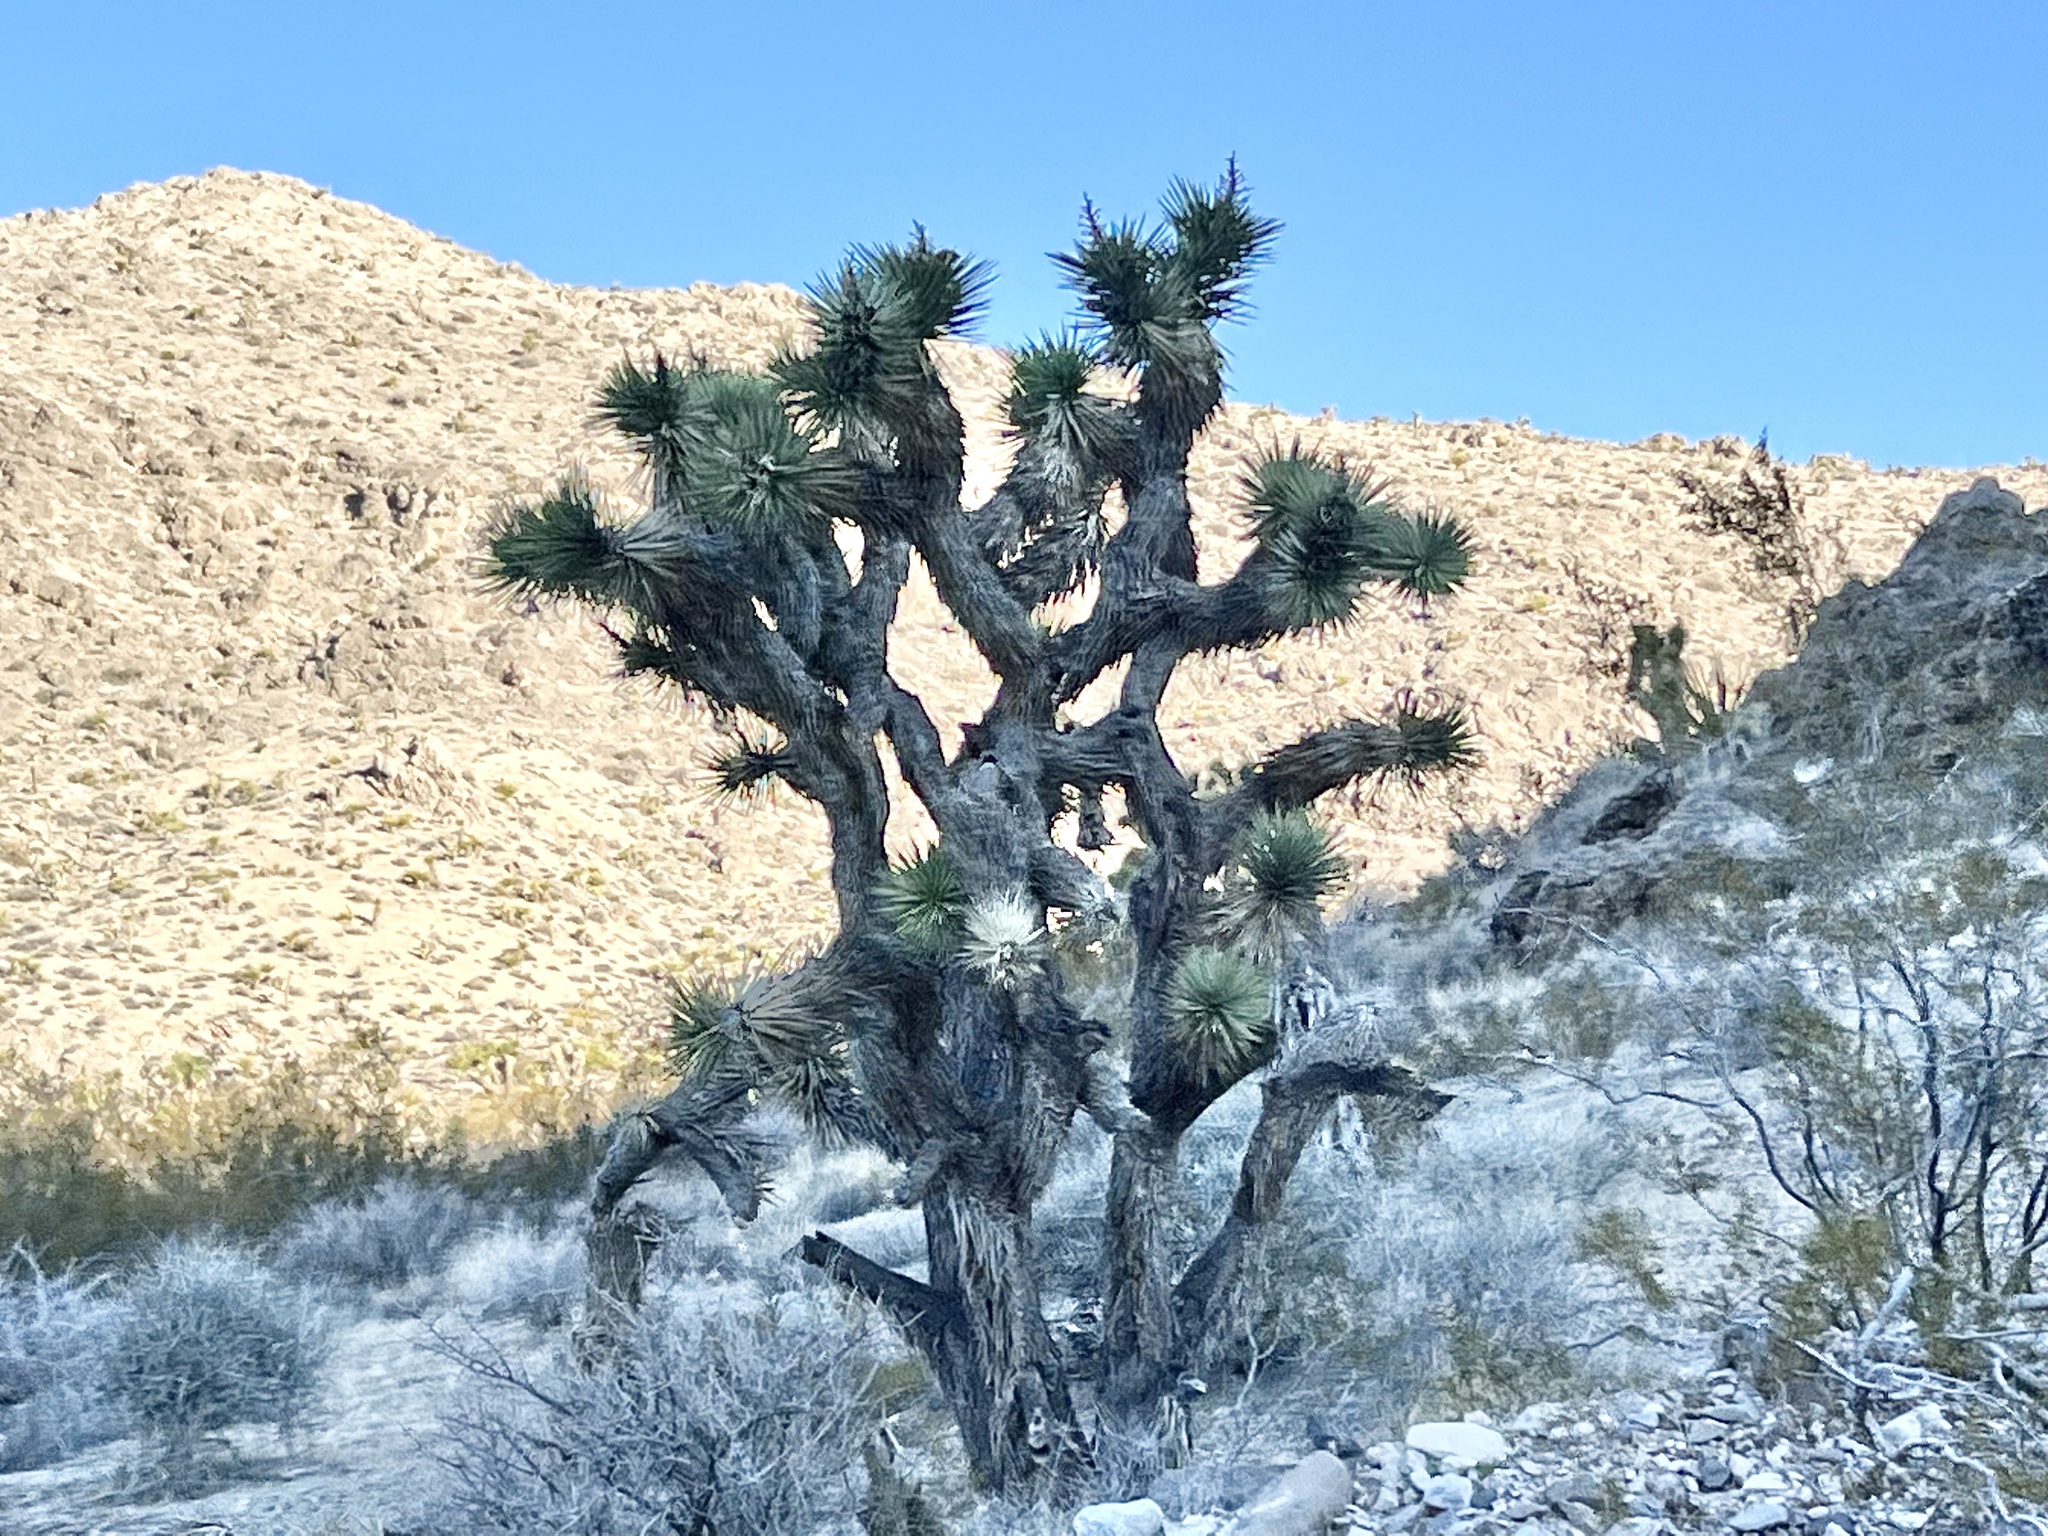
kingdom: Plantae
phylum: Tracheophyta
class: Liliopsida
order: Asparagales
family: Asparagaceae
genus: Yucca
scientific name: Yucca brevifolia
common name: Joshua tree
